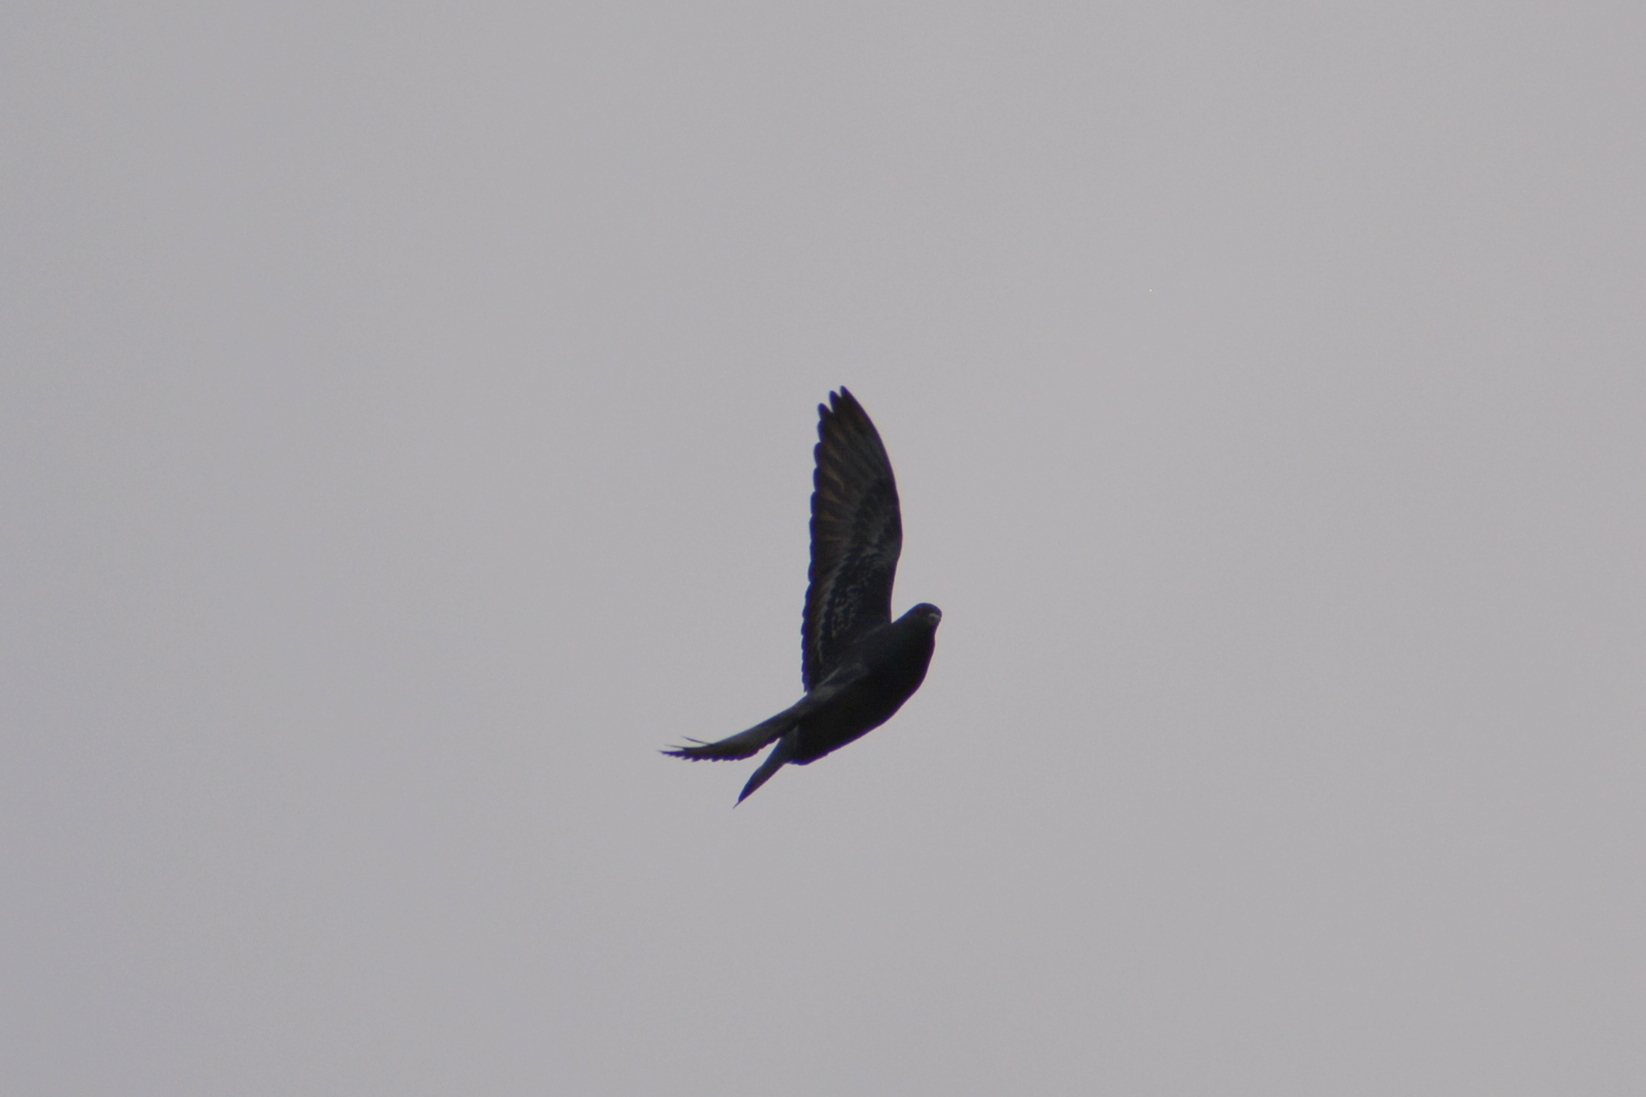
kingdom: Animalia
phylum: Chordata
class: Aves
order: Columbiformes
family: Columbidae
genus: Columba
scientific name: Columba livia
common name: Rock pigeon
